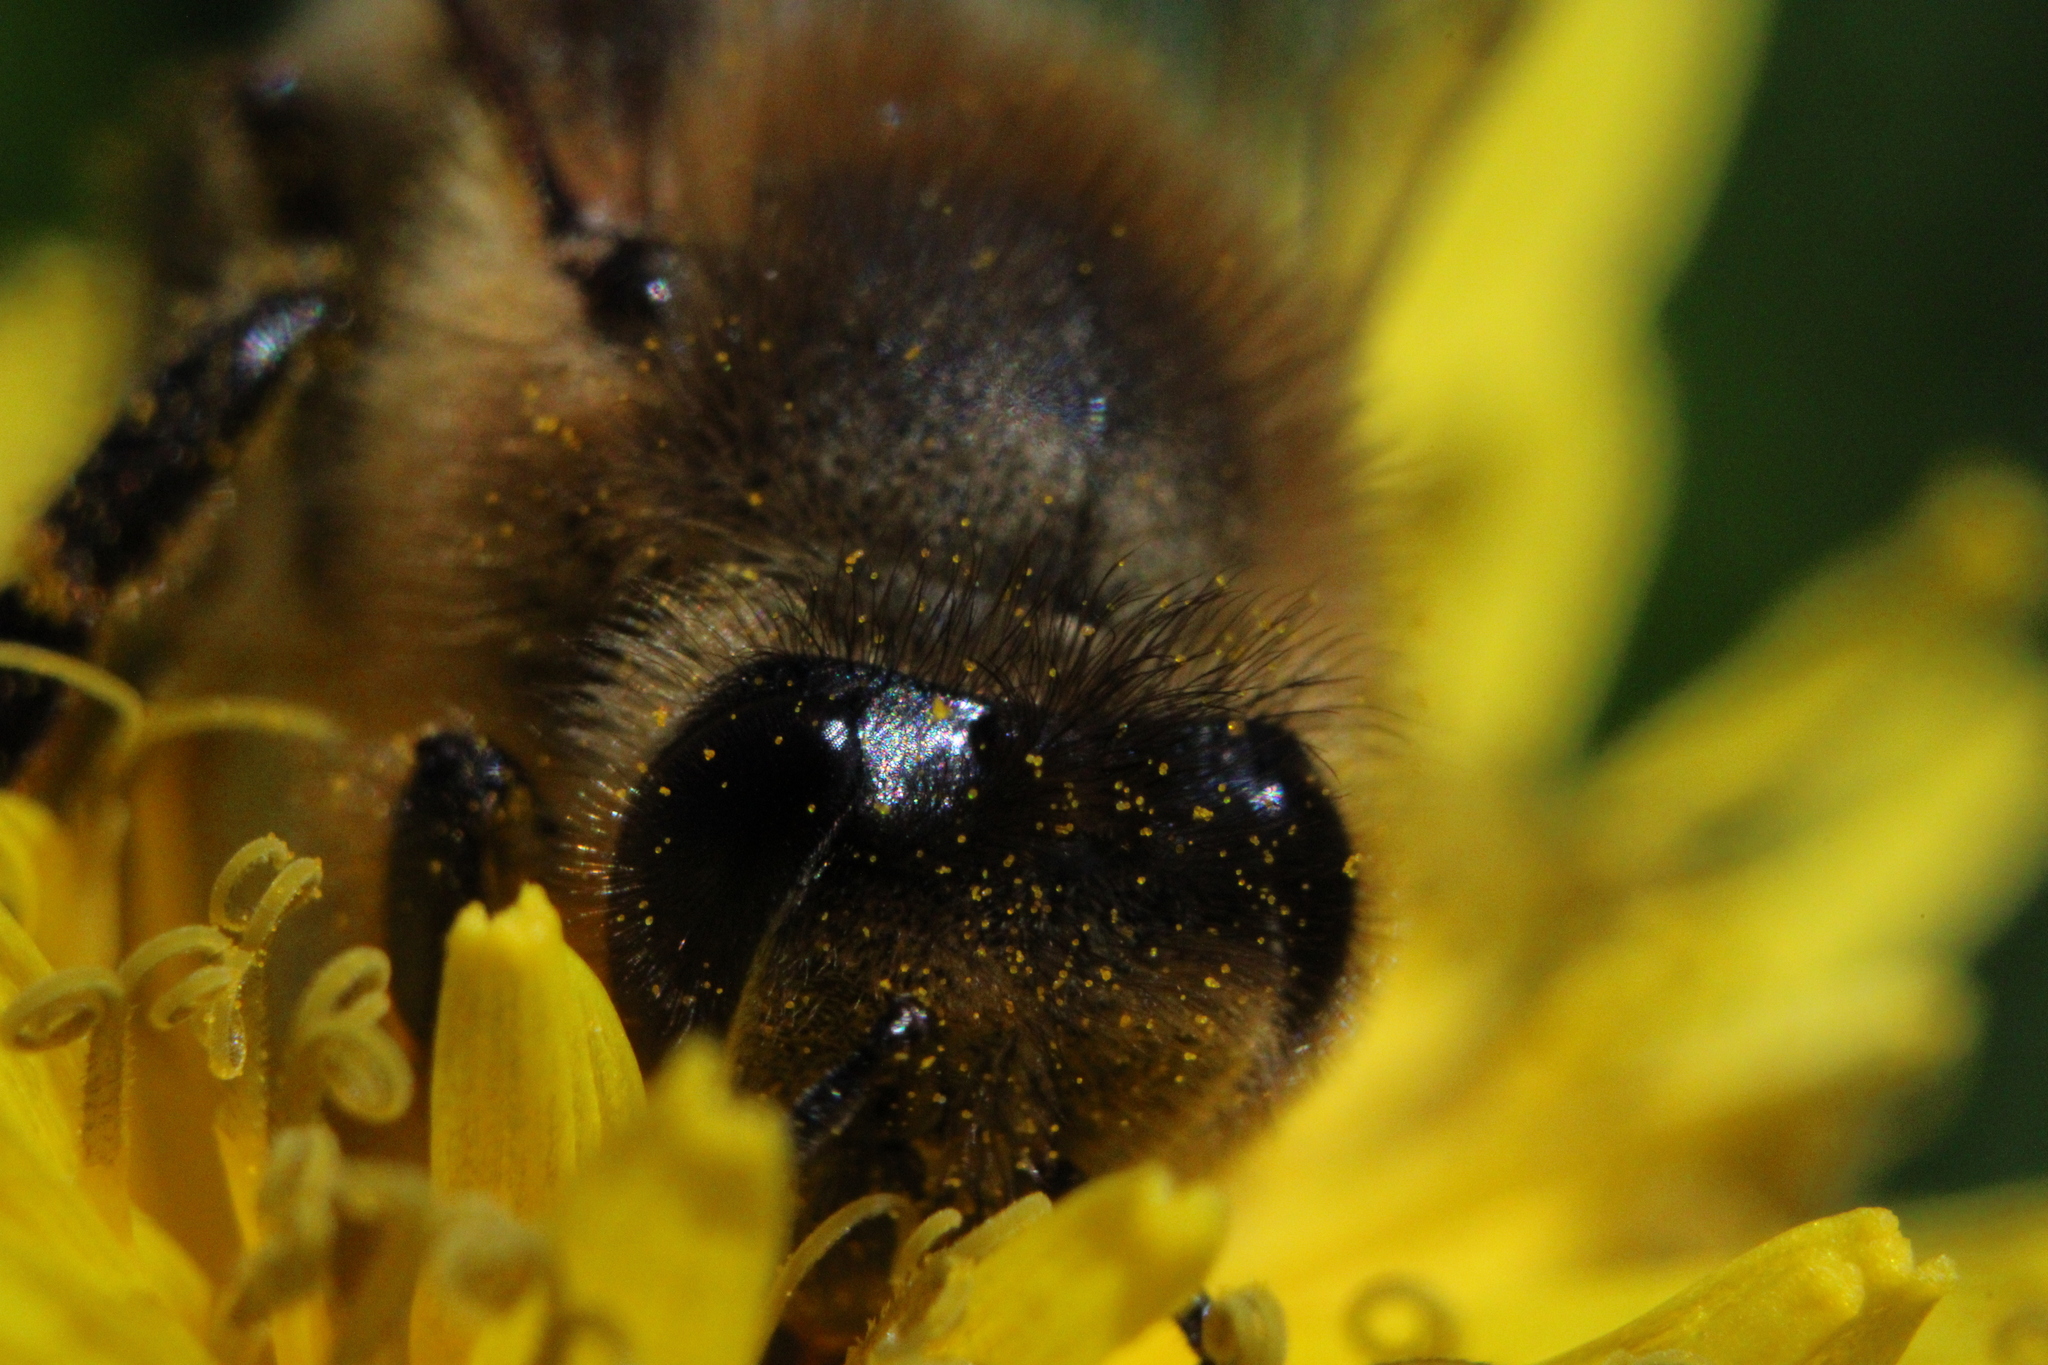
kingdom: Animalia
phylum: Arthropoda
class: Insecta
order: Hymenoptera
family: Apidae
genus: Apis
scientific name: Apis mellifera
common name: Honey bee
